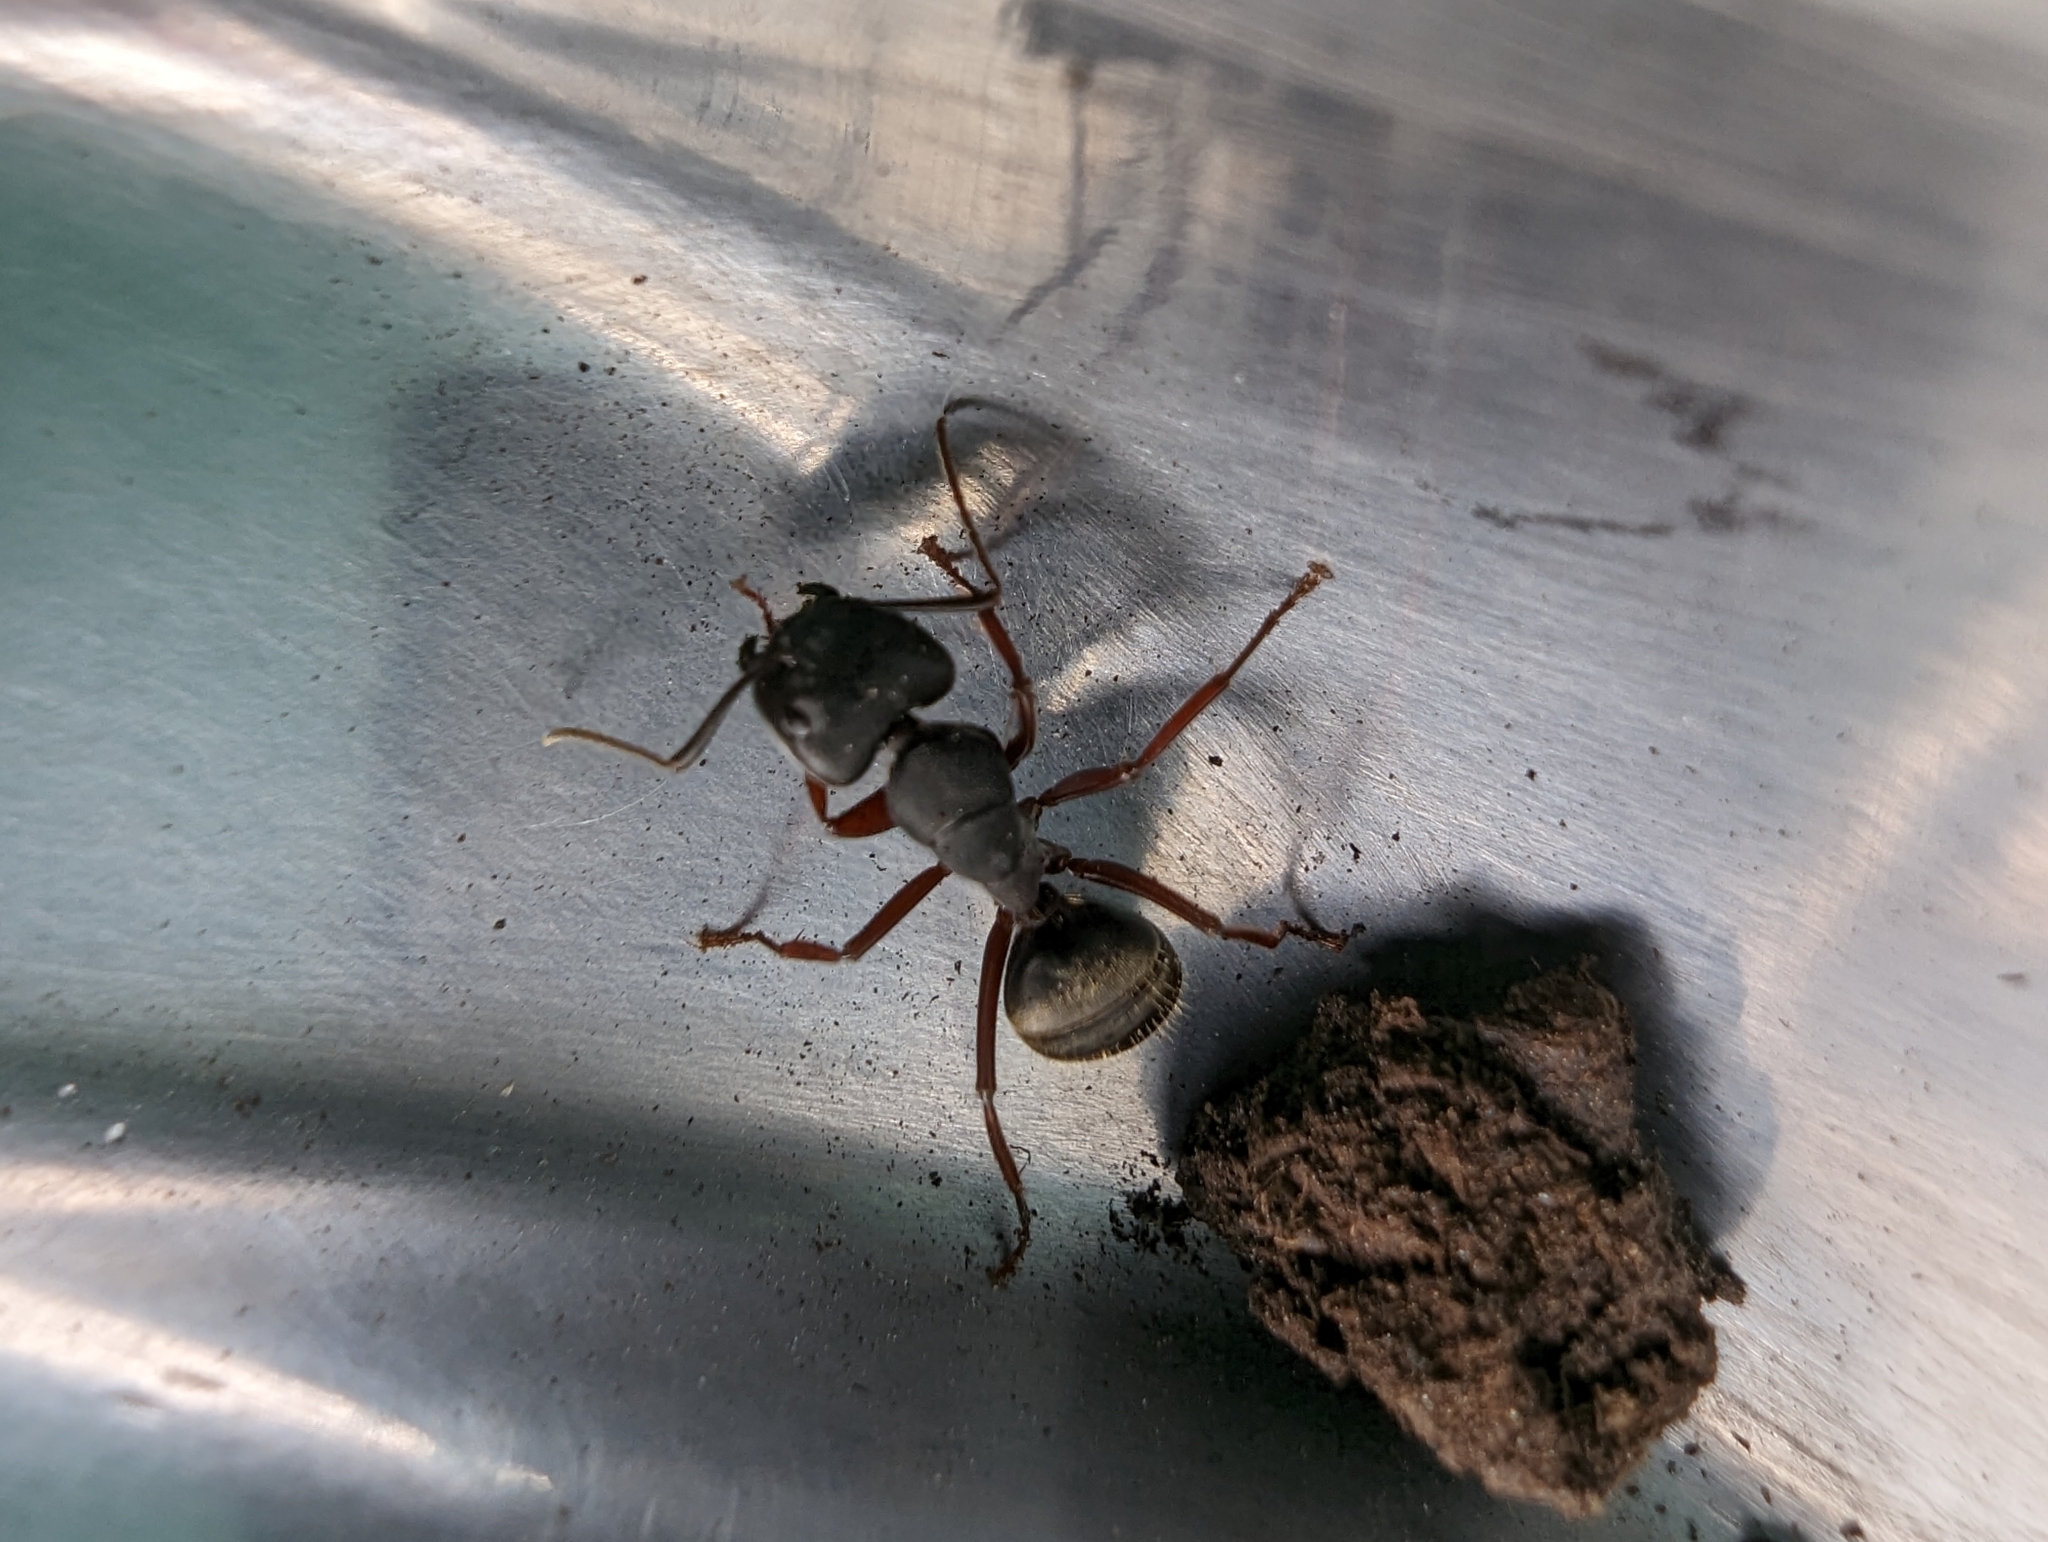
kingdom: Animalia
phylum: Arthropoda
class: Insecta
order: Hymenoptera
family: Formicidae
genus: Camponotus
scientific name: Camponotus modoc
